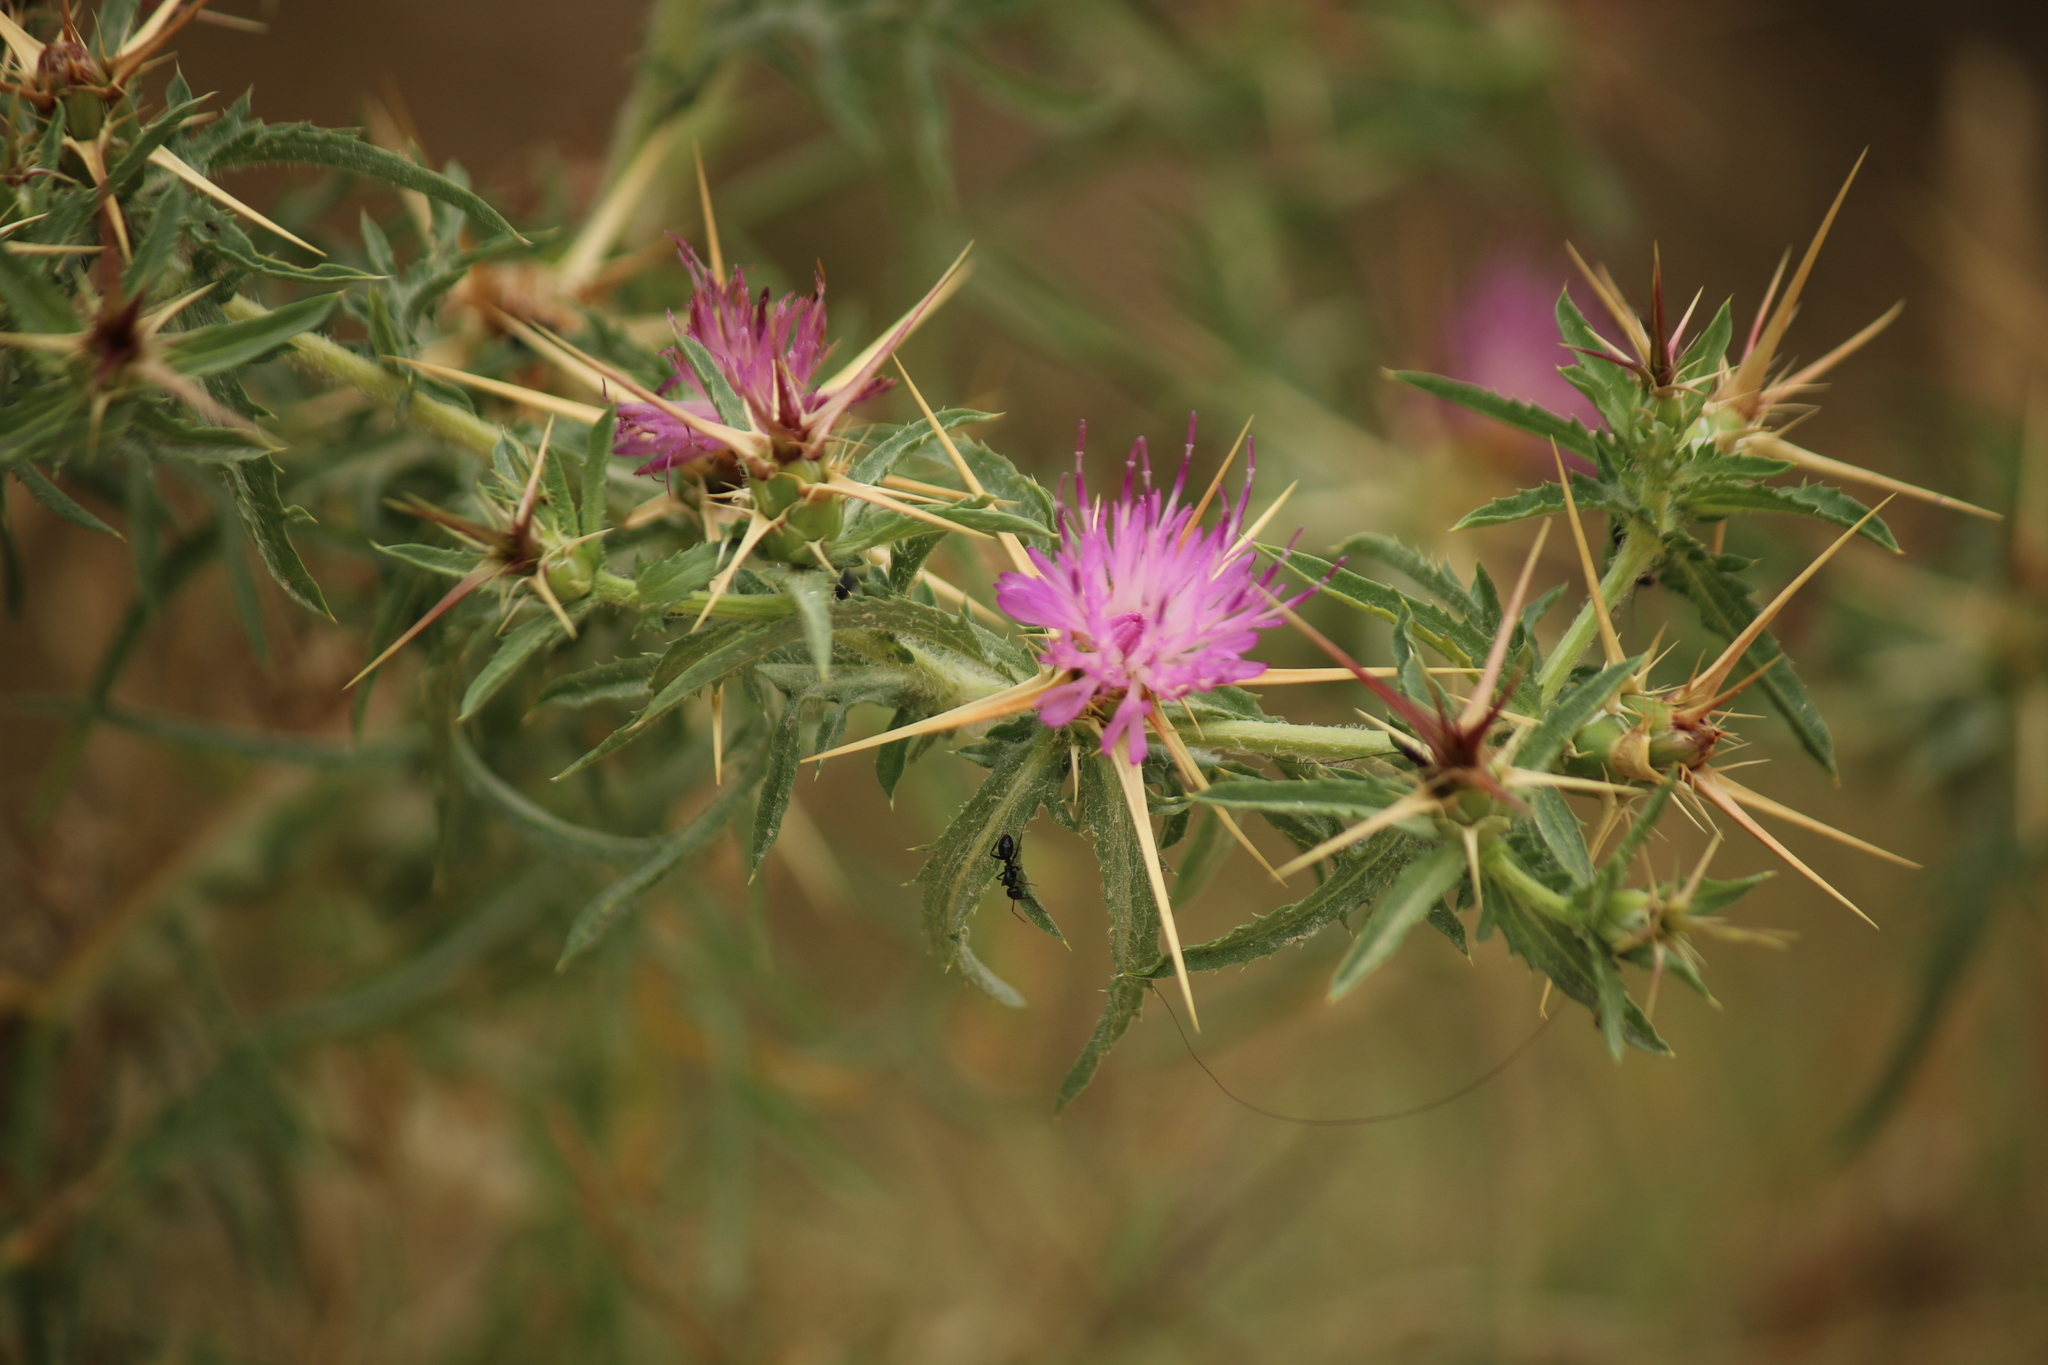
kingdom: Plantae
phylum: Tracheophyta
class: Magnoliopsida
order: Asterales
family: Asteraceae
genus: Centaurea
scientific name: Centaurea calcitrapa
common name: Red star-thistle
